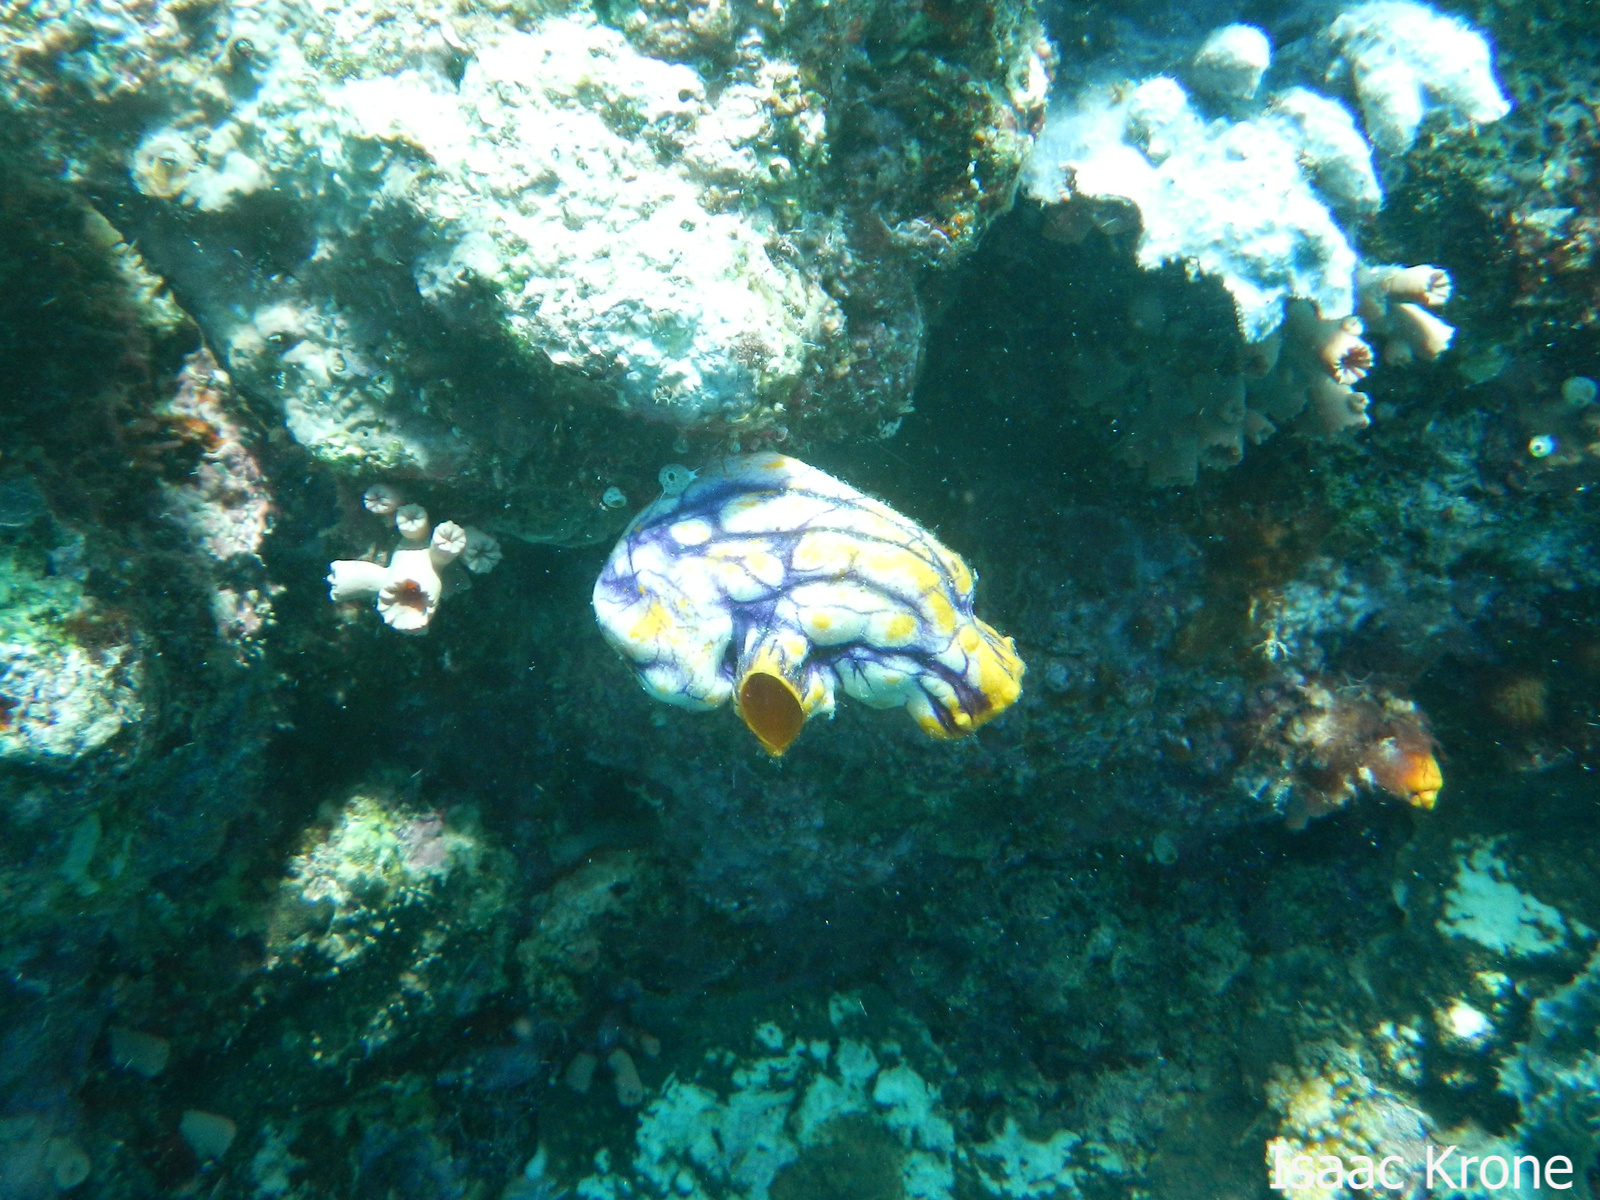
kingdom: Animalia
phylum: Chordata
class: Ascidiacea
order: Stolidobranchia
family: Styelidae
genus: Polycarpa
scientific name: Polycarpa aurata
